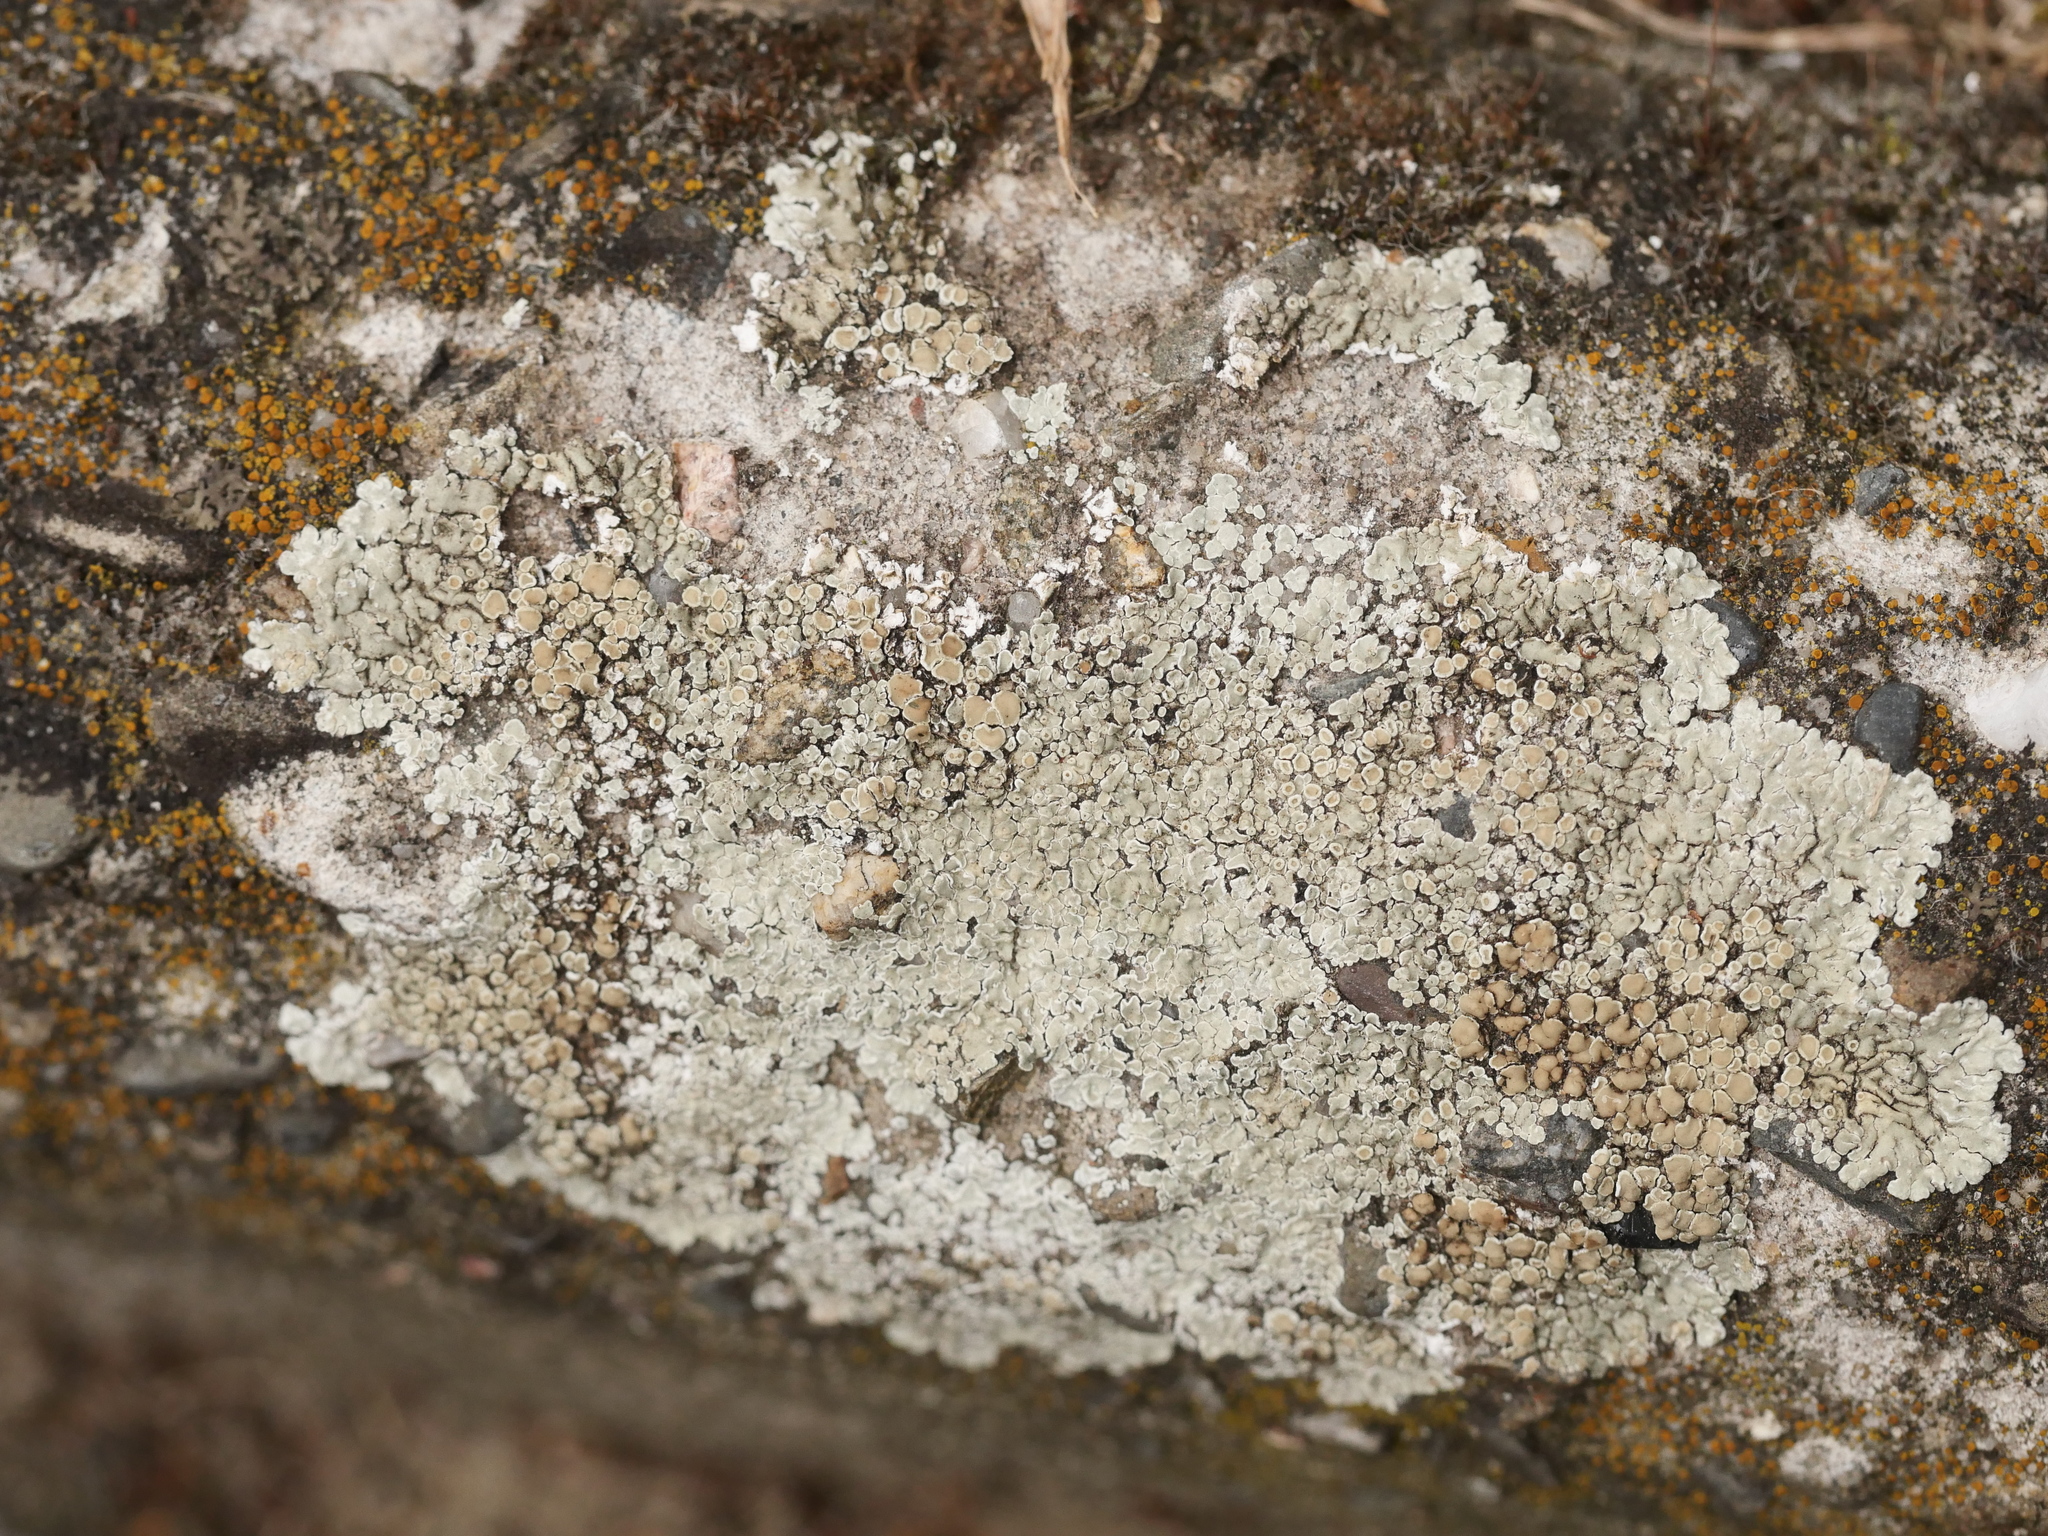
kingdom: Fungi
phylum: Ascomycota
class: Lecanoromycetes
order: Lecanorales
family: Lecanoraceae
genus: Protoparmeliopsis
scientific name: Protoparmeliopsis muralis
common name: Stonewall rim lichen
